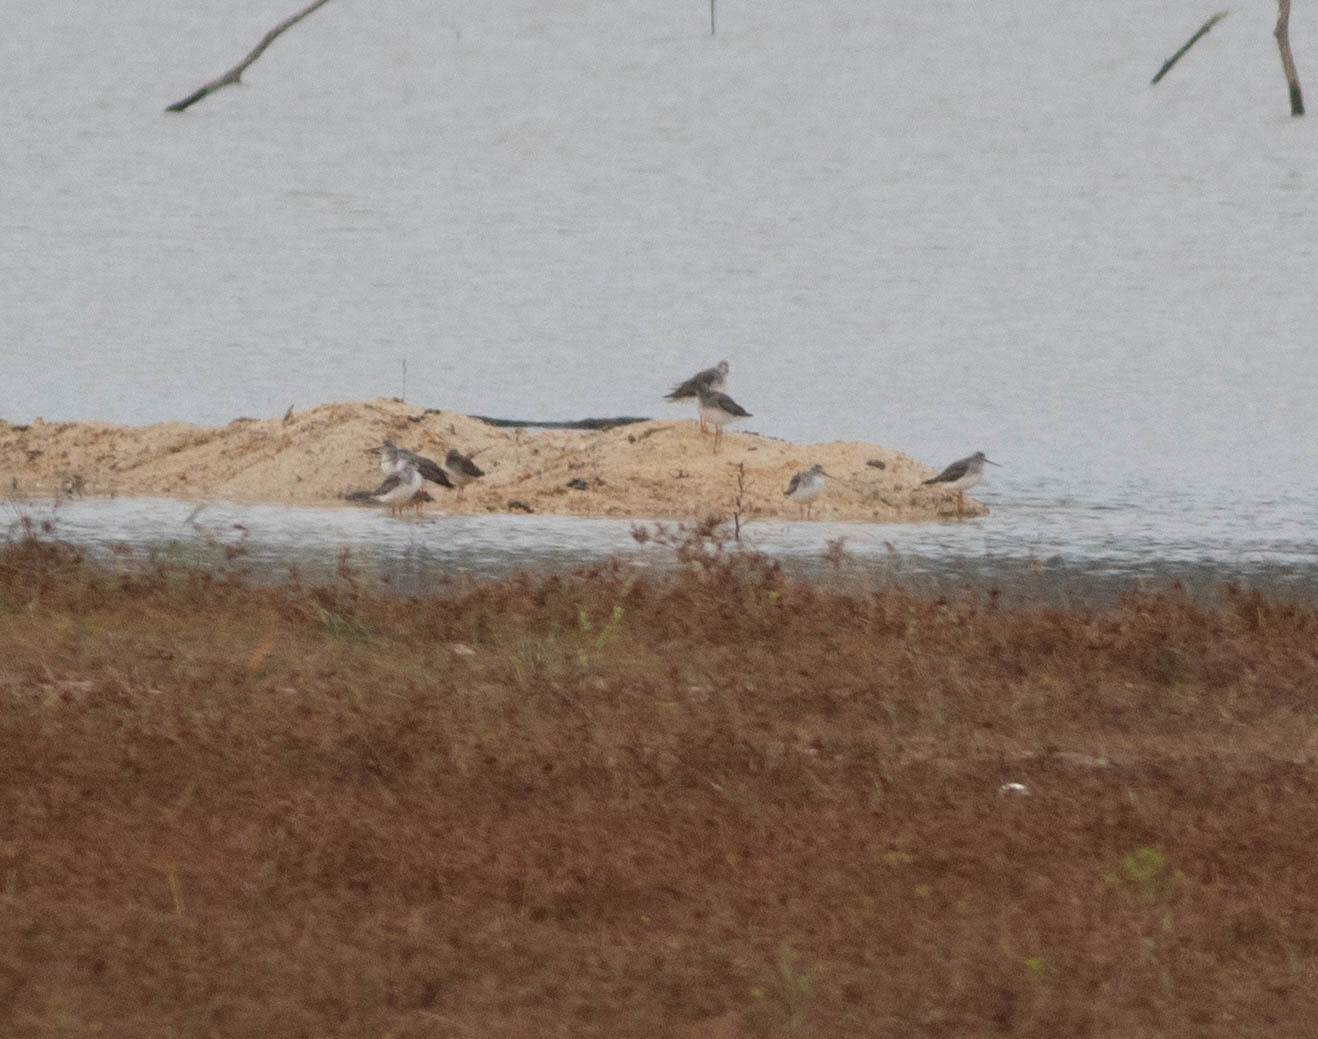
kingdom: Animalia
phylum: Chordata
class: Aves
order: Charadriiformes
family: Scolopacidae
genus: Tringa
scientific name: Tringa melanoleuca
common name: Greater yellowlegs
